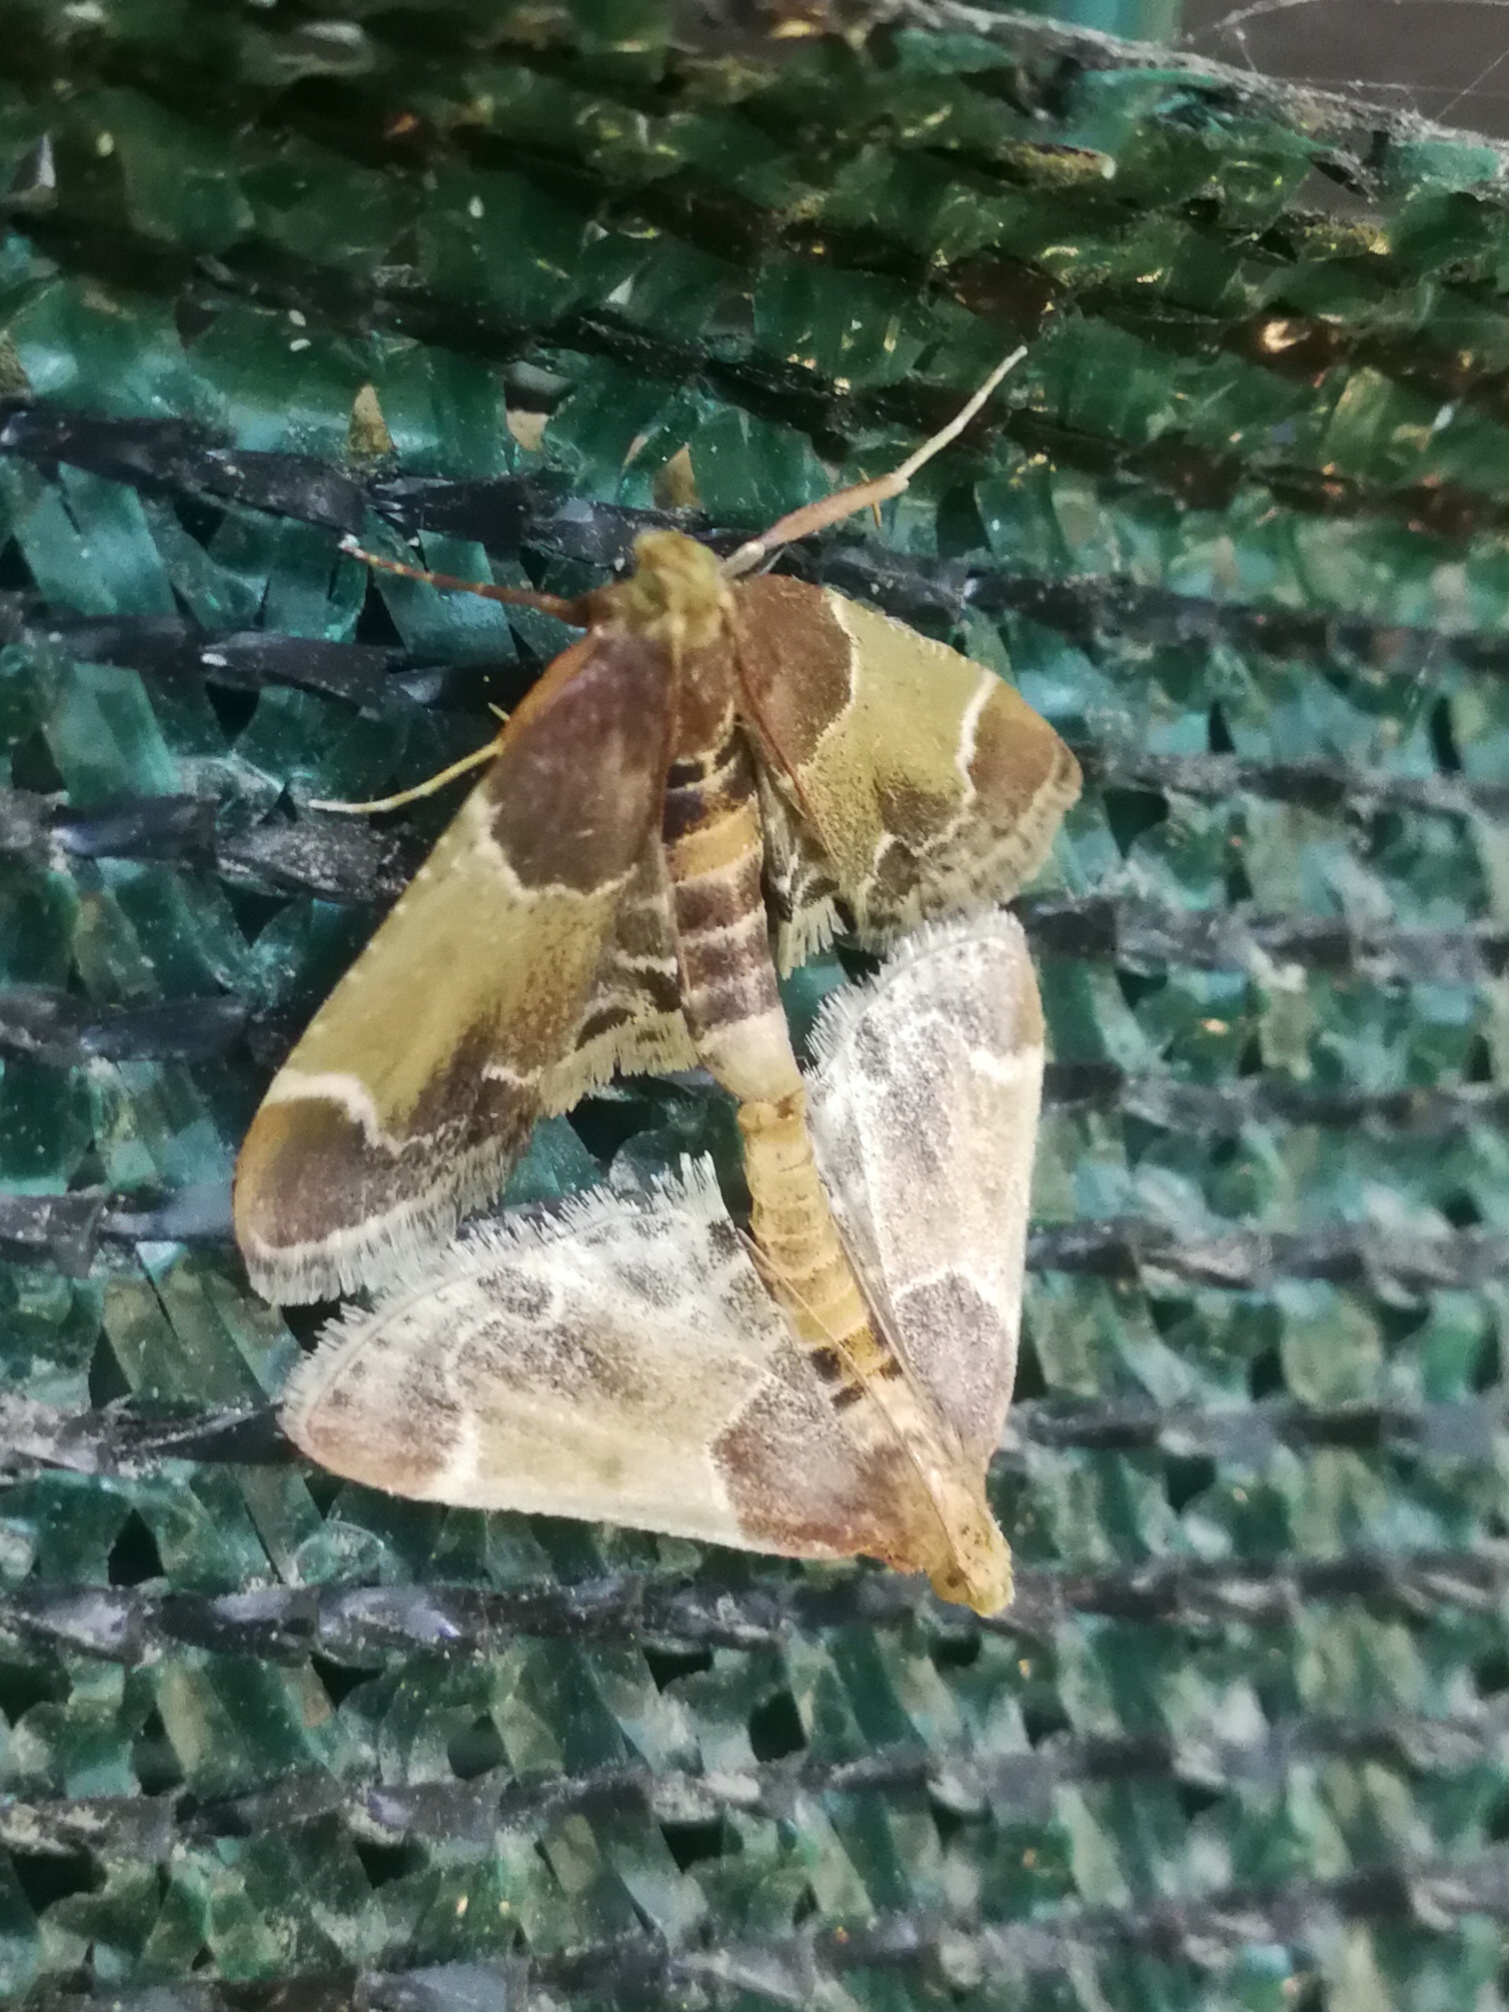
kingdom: Animalia
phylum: Arthropoda
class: Insecta
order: Lepidoptera
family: Pyralidae
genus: Pyralis
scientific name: Pyralis farinalis
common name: Meal moth
